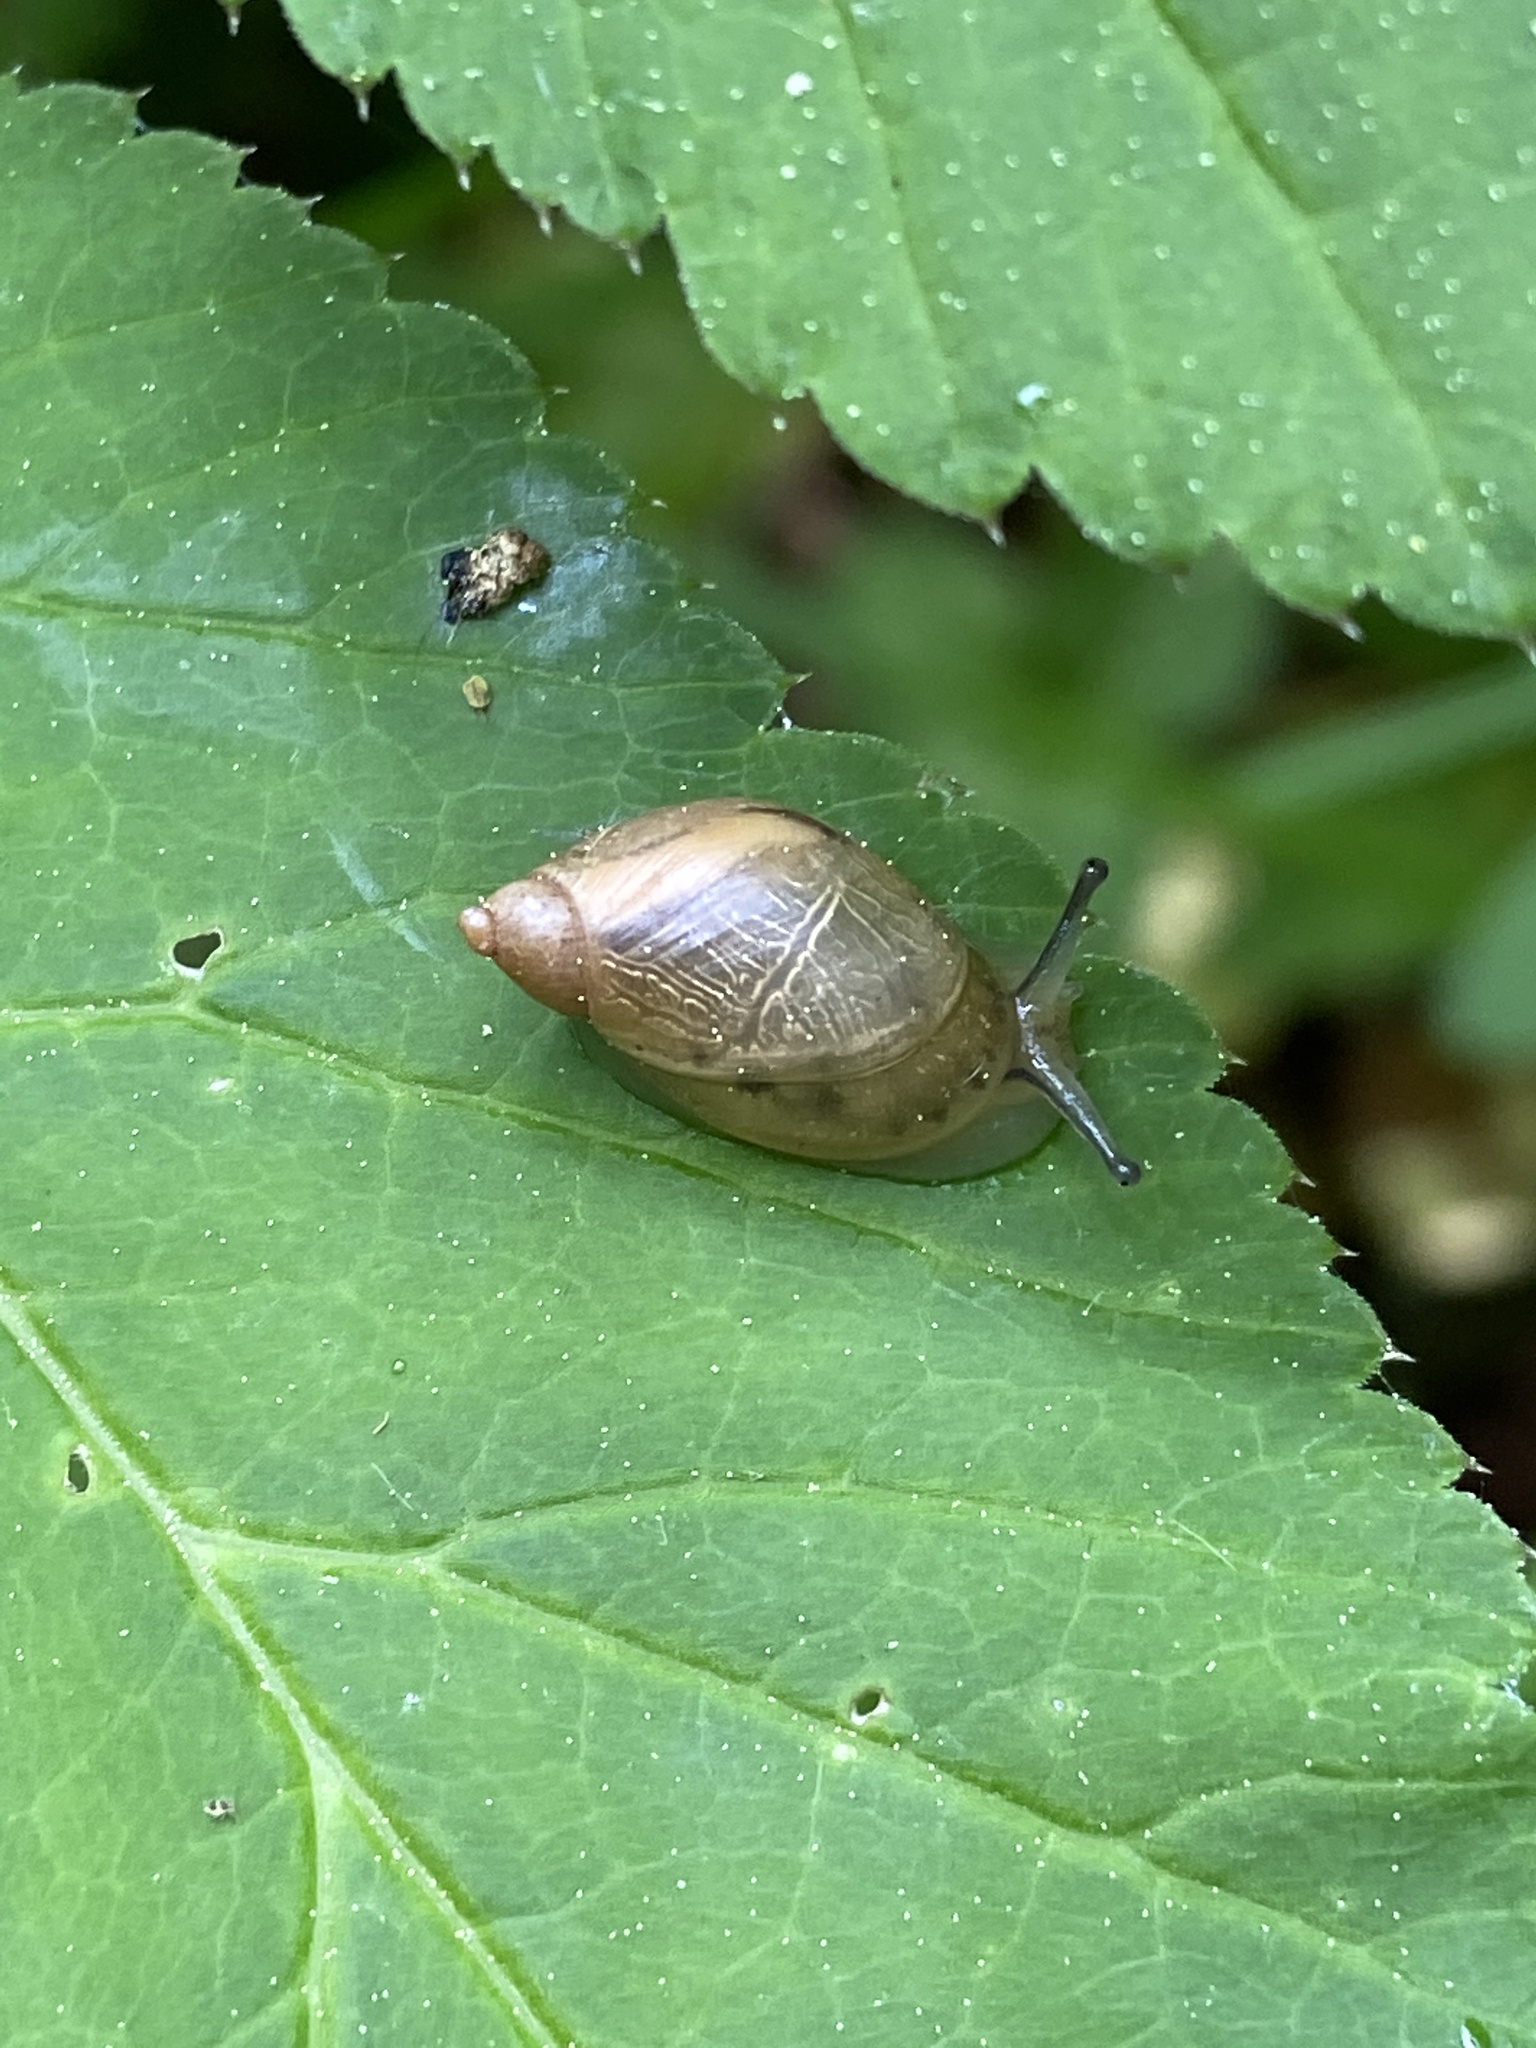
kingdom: Animalia
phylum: Mollusca
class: Gastropoda
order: Stylommatophora
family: Succineidae
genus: Succinea
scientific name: Succinea putris
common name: European ambersnail
